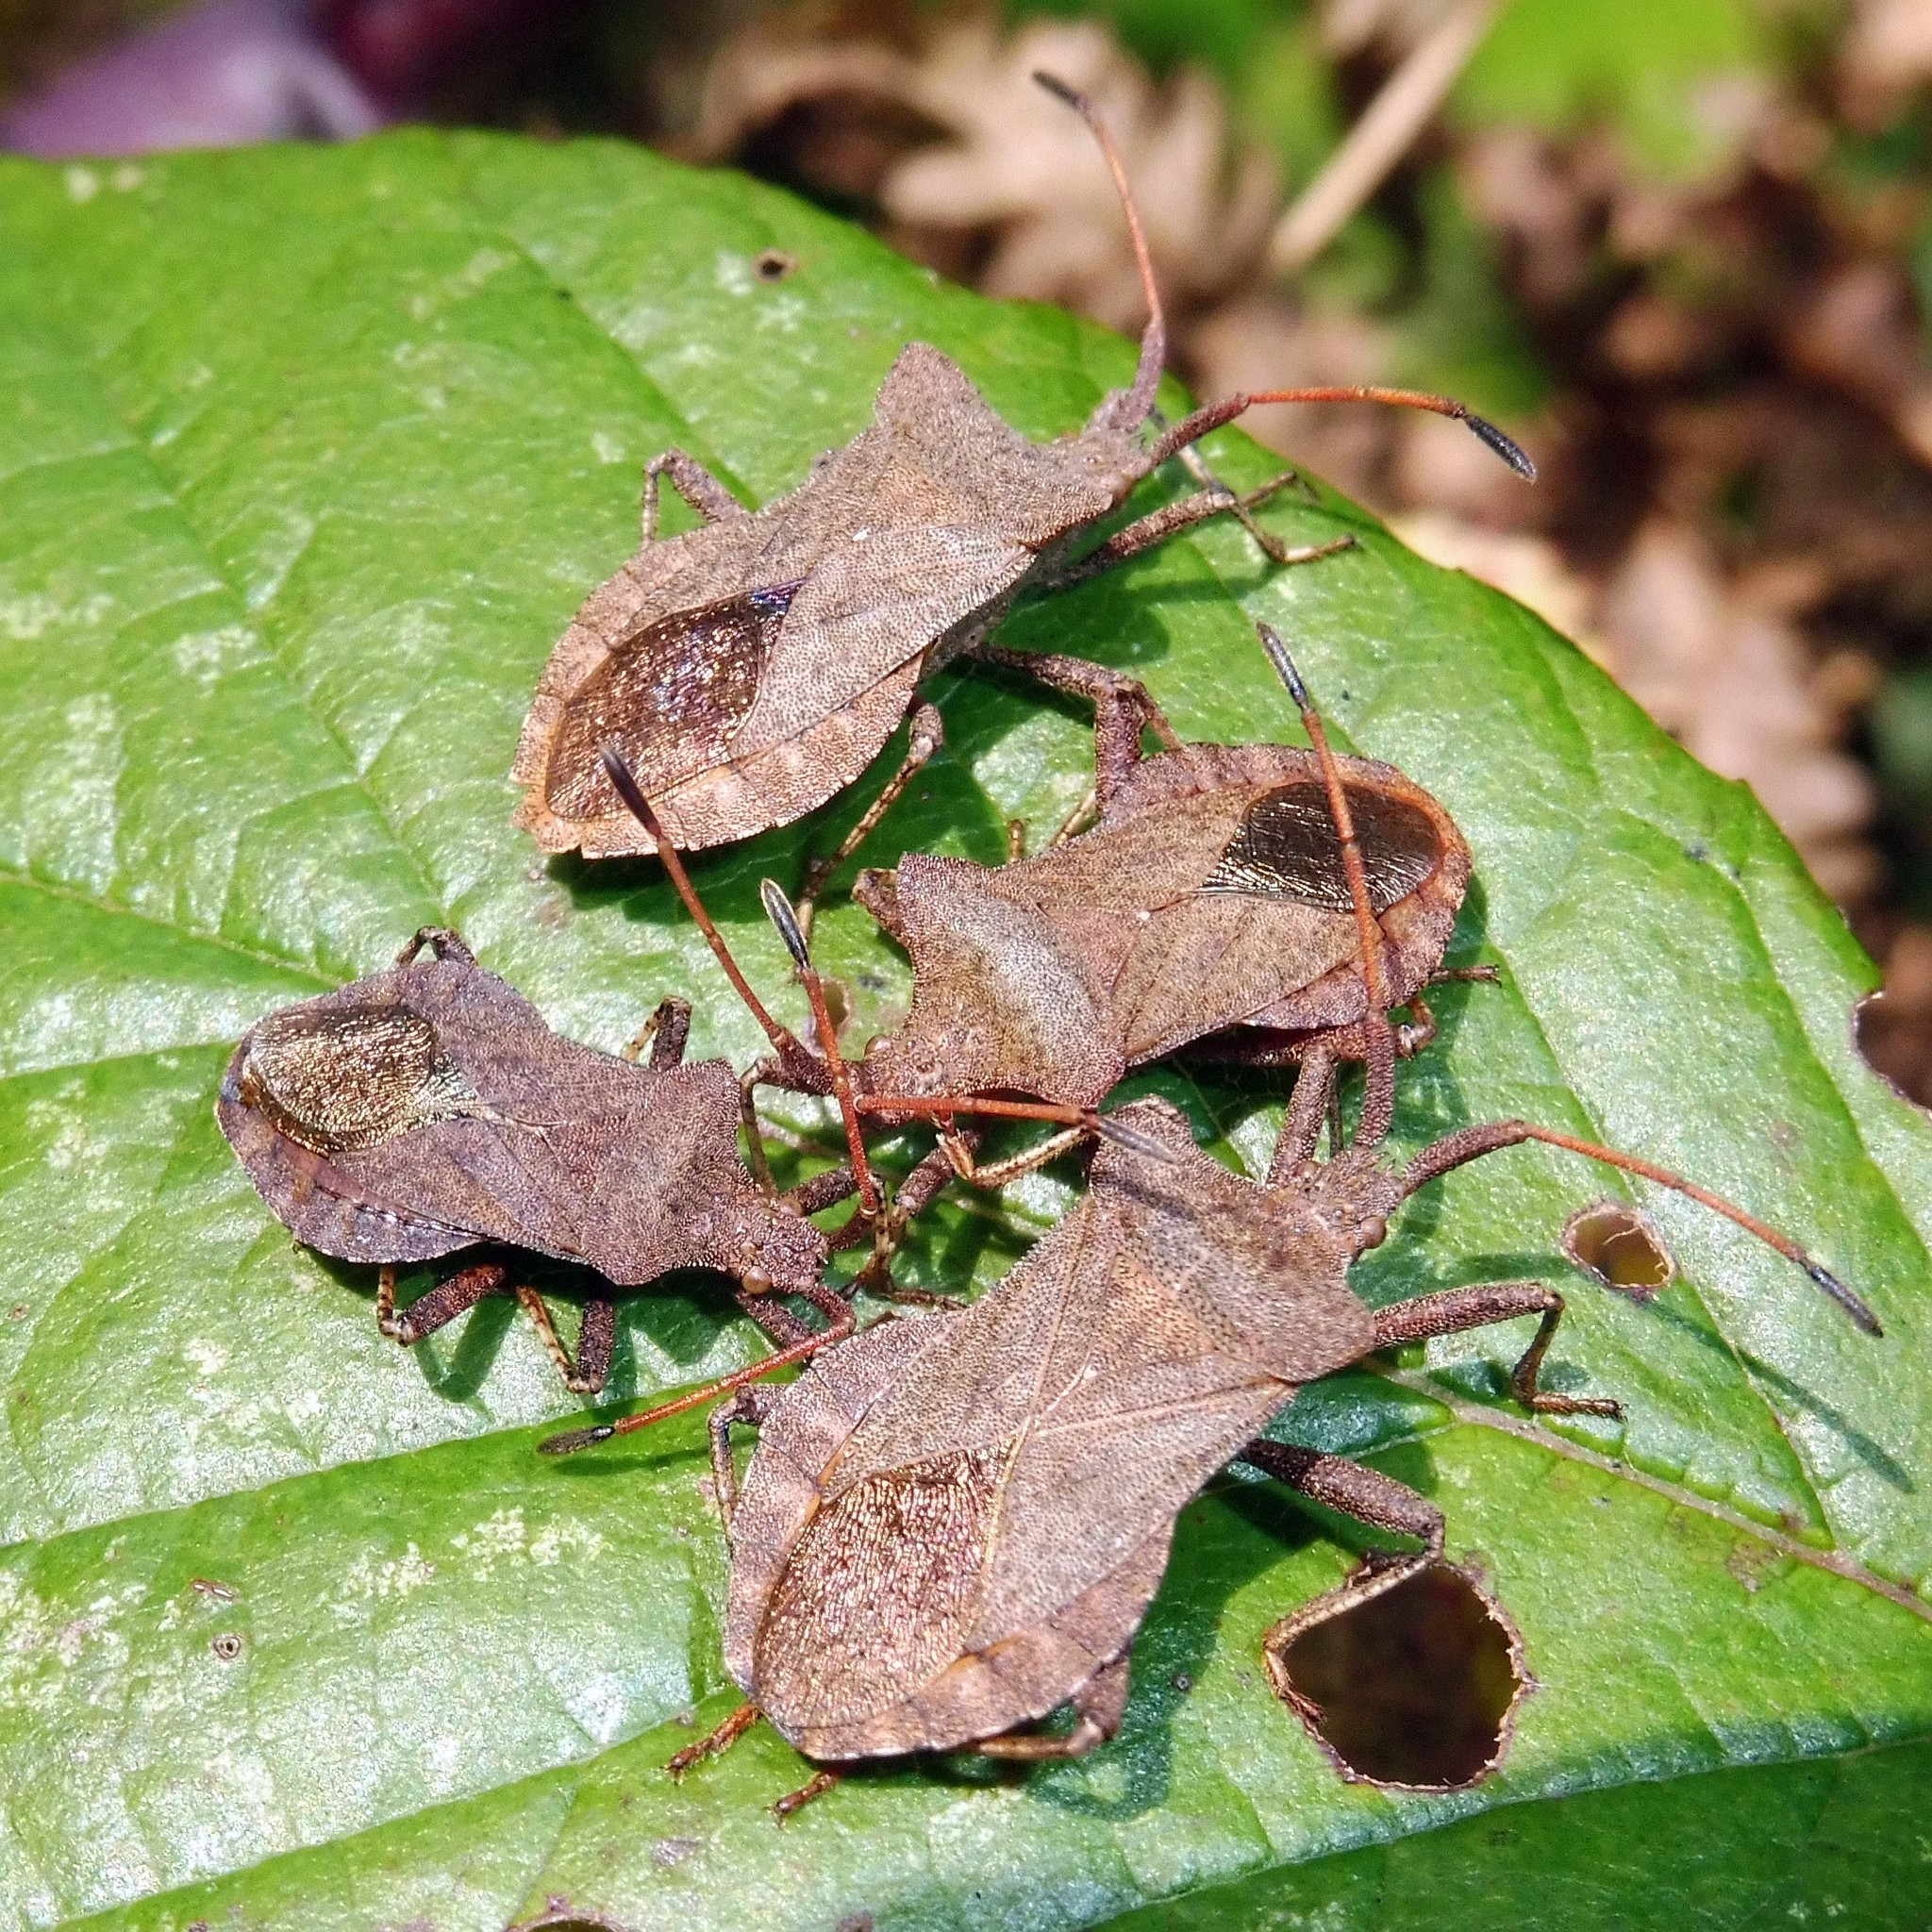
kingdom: Animalia
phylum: Arthropoda
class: Insecta
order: Hemiptera
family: Coreidae
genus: Coreus
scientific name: Coreus marginatus
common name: Dock bug
